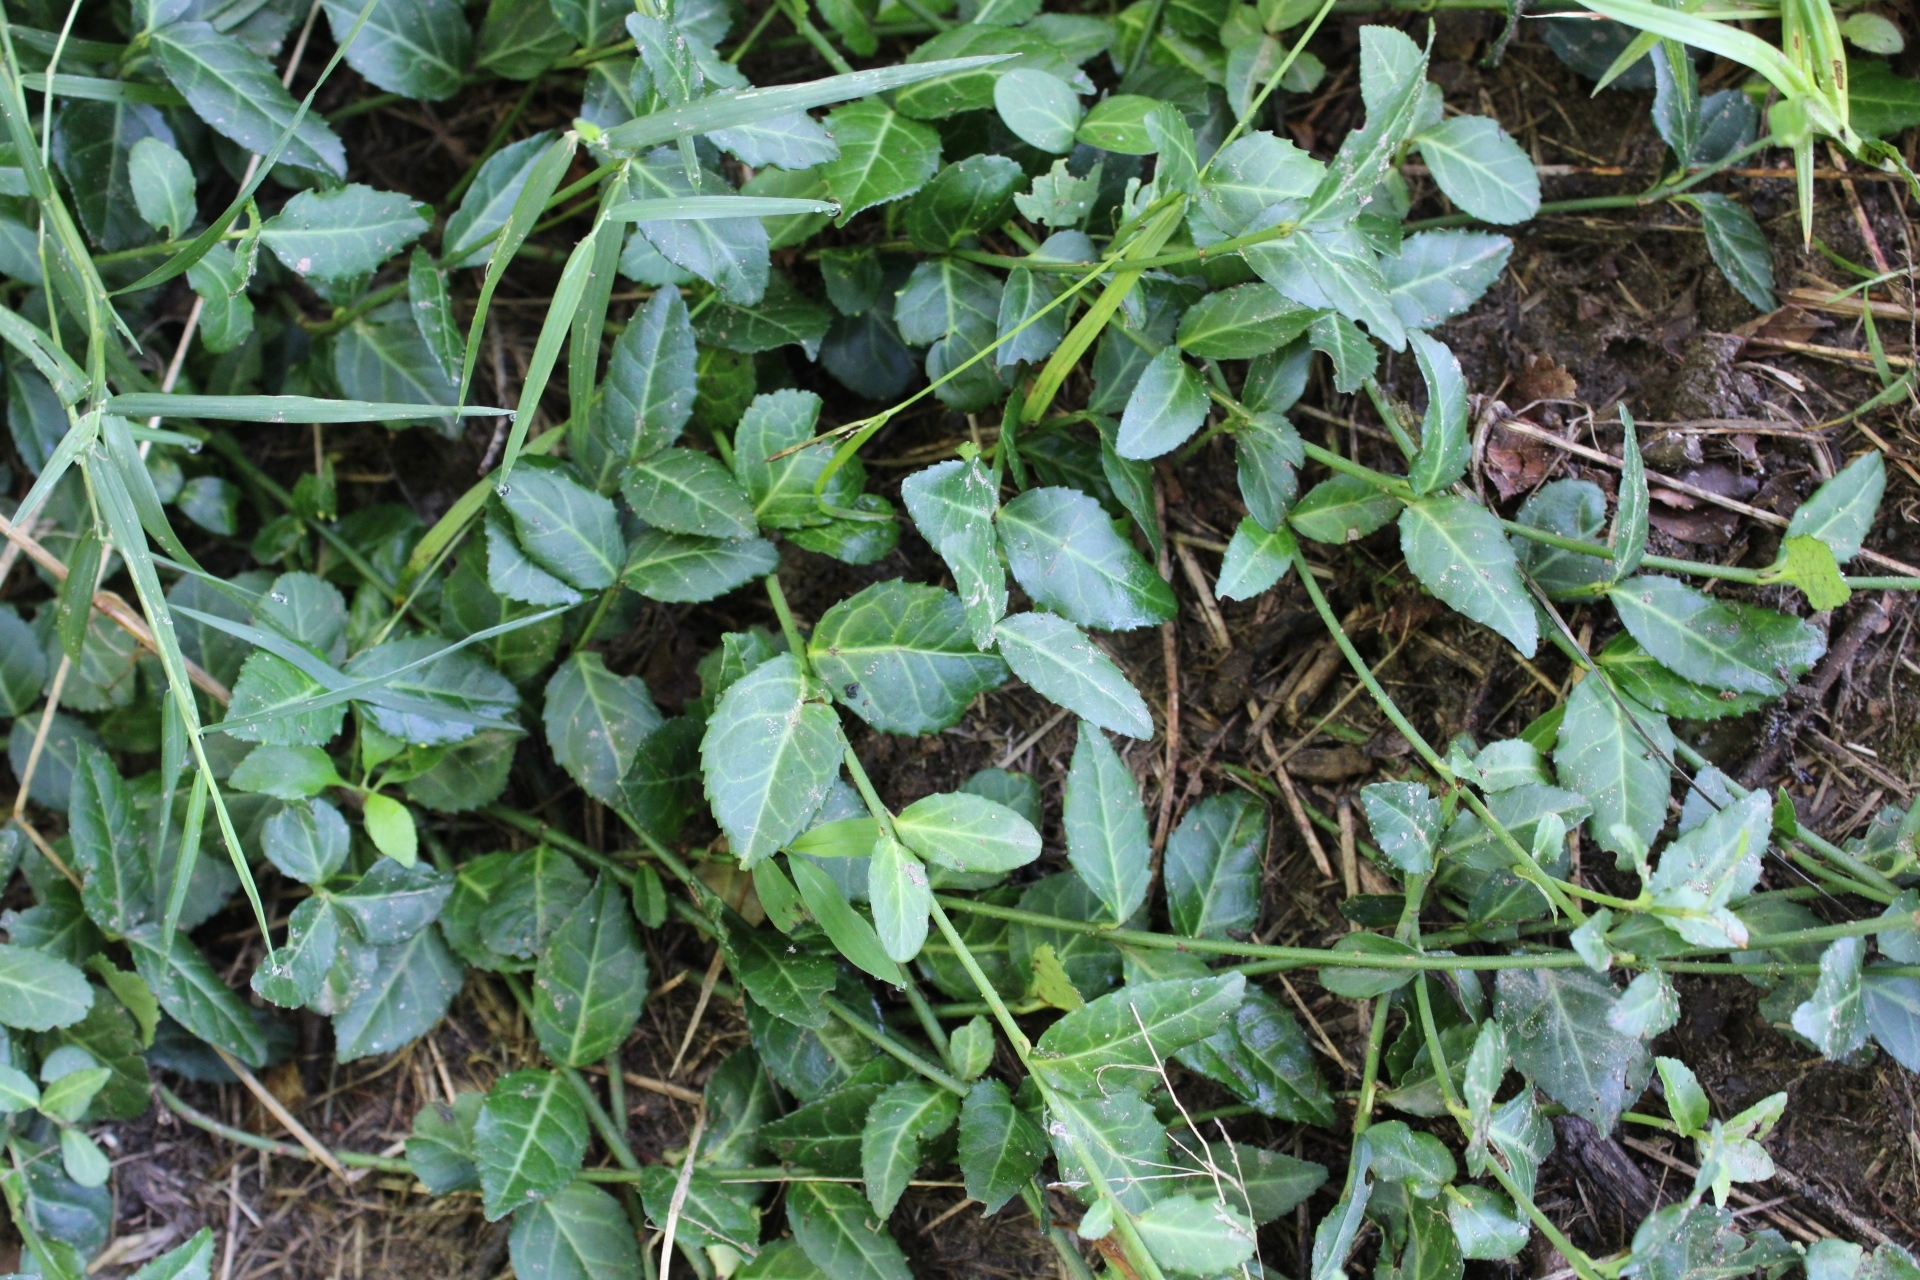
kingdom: Plantae
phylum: Tracheophyta
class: Magnoliopsida
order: Celastrales
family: Celastraceae
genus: Euonymus
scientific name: Euonymus fortunei
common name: Climbing euonymus
